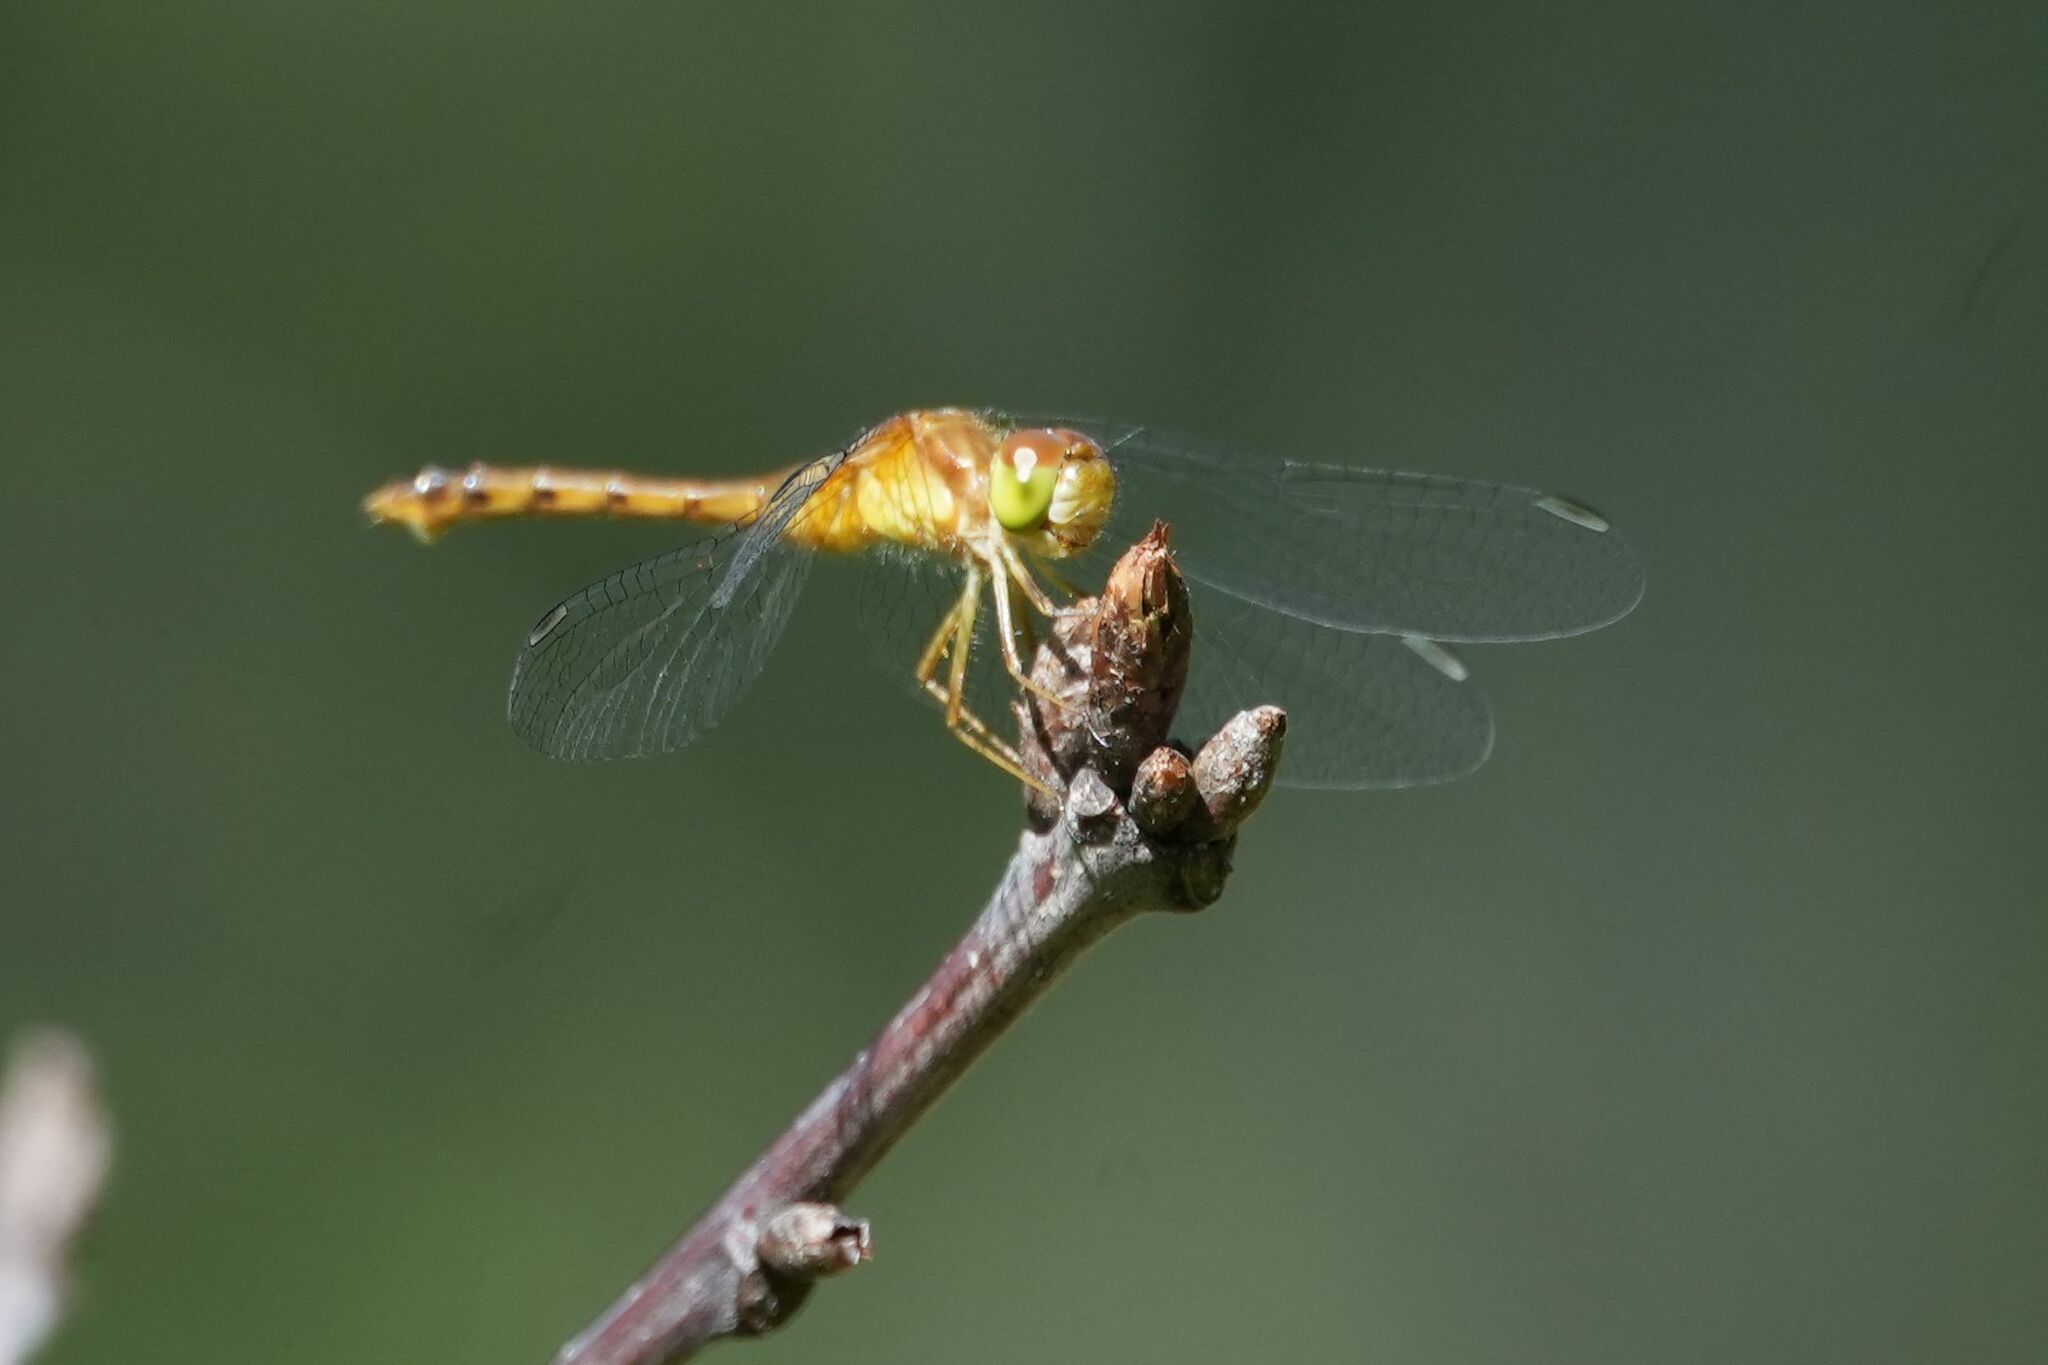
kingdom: Animalia
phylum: Arthropoda
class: Insecta
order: Odonata
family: Libellulidae
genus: Sympetrum
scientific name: Sympetrum vicinum
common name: Autumn meadowhawk
